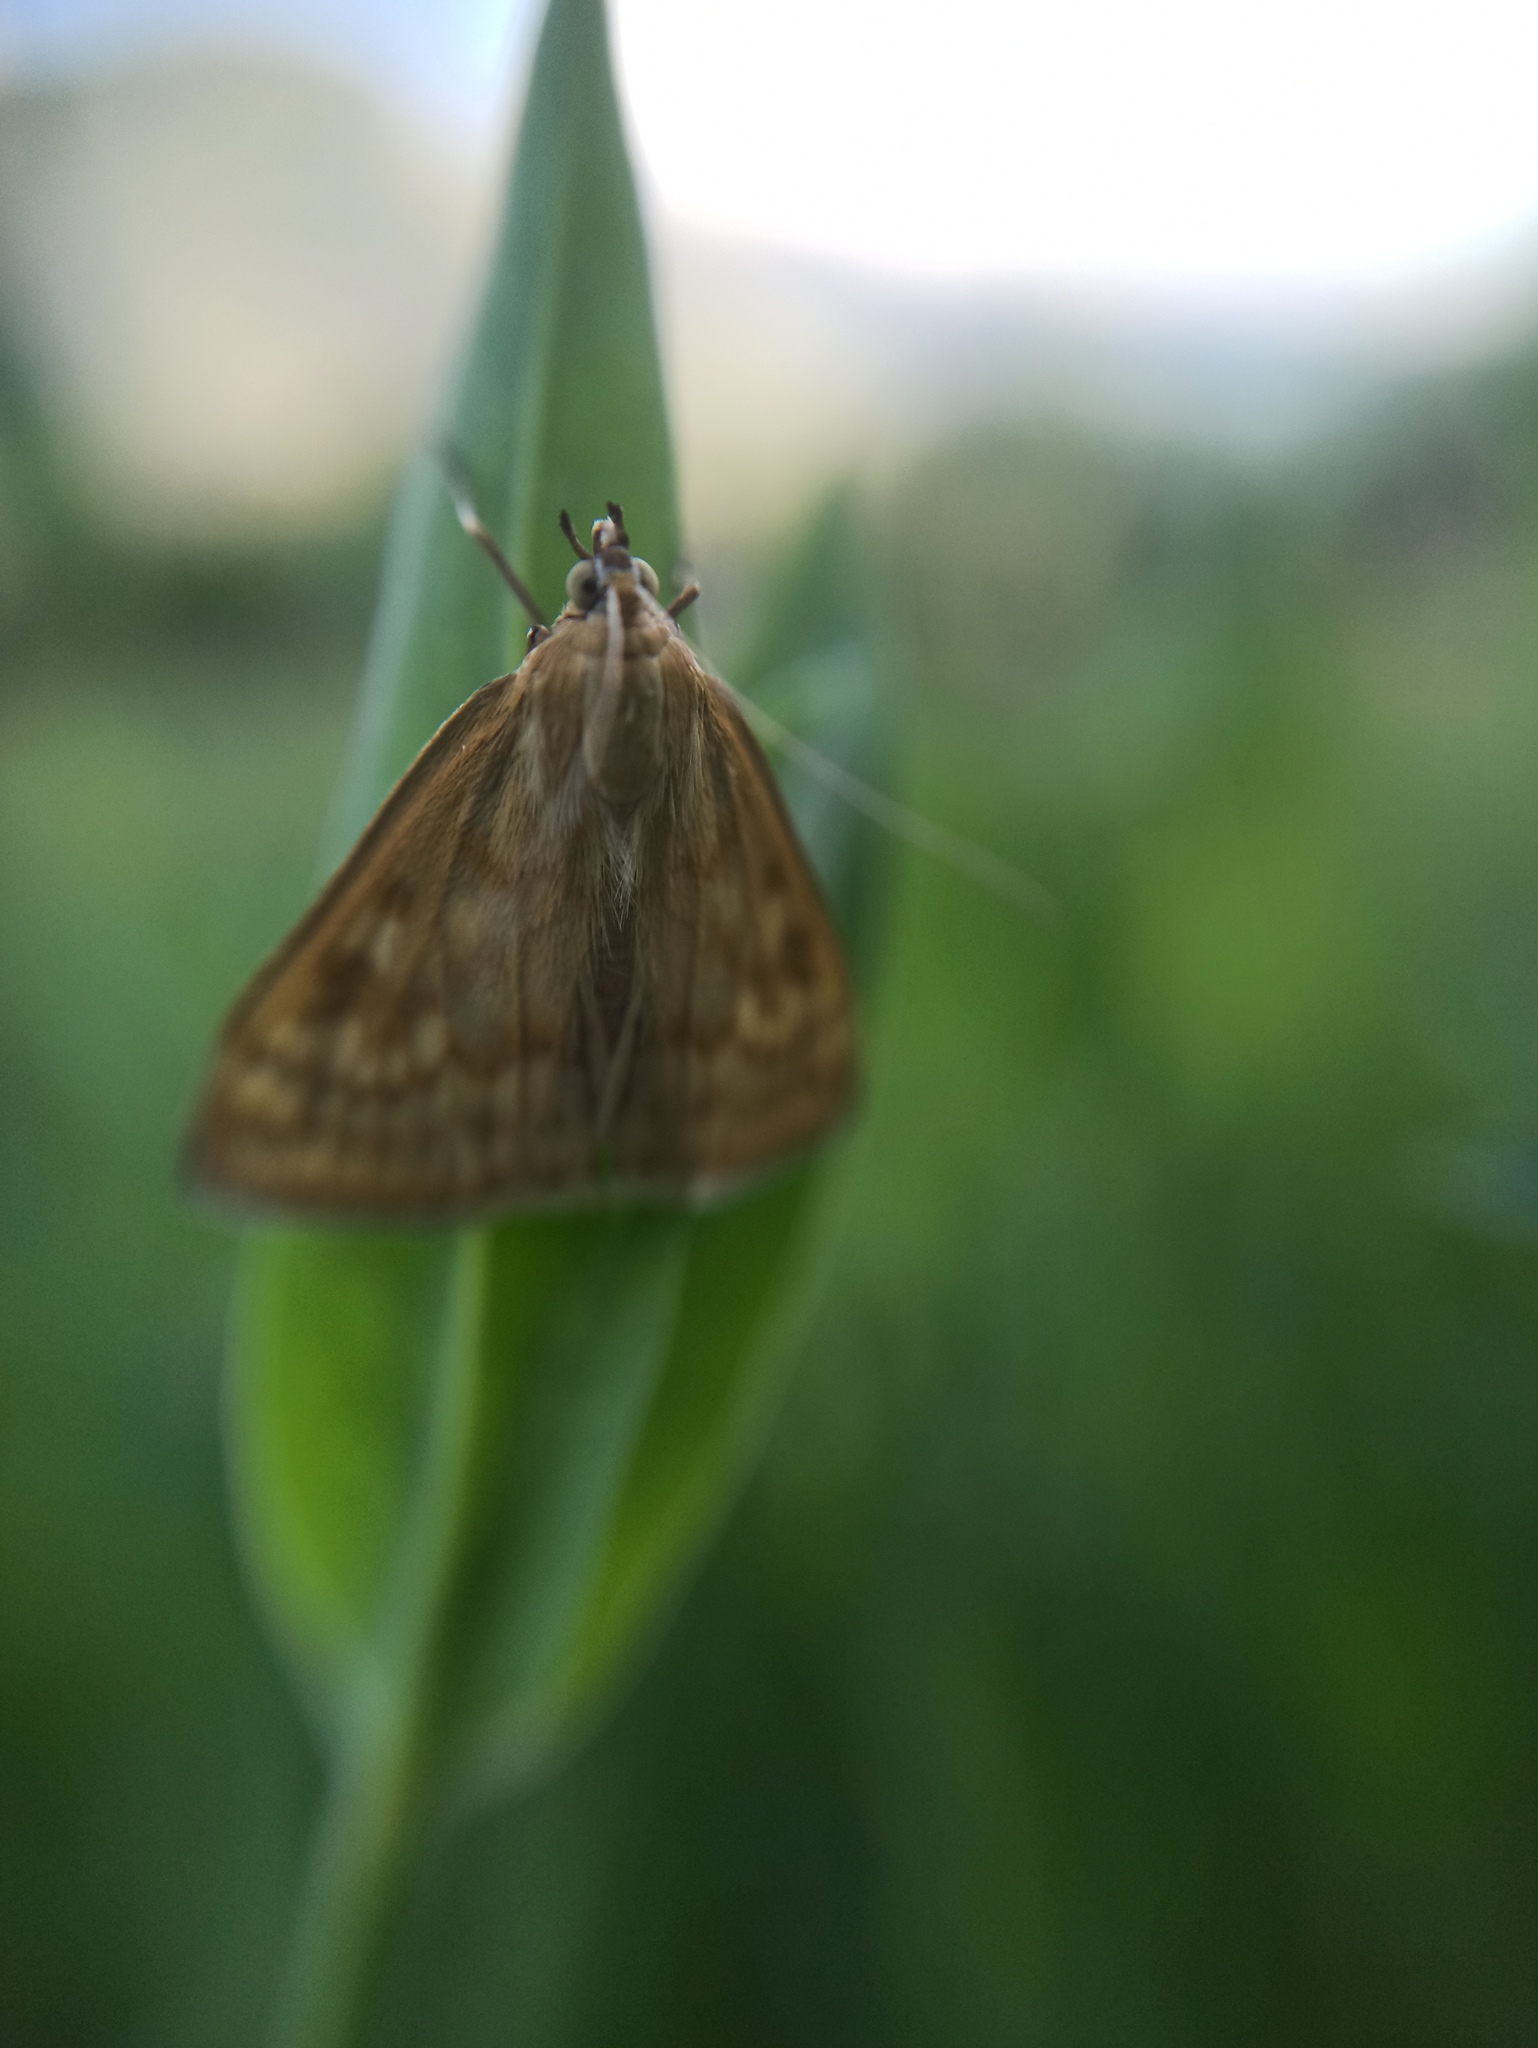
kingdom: Animalia
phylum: Arthropoda
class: Insecta
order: Lepidoptera
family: Crambidae
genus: Sitochroa
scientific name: Sitochroa verticalis
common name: Lesser pearl
